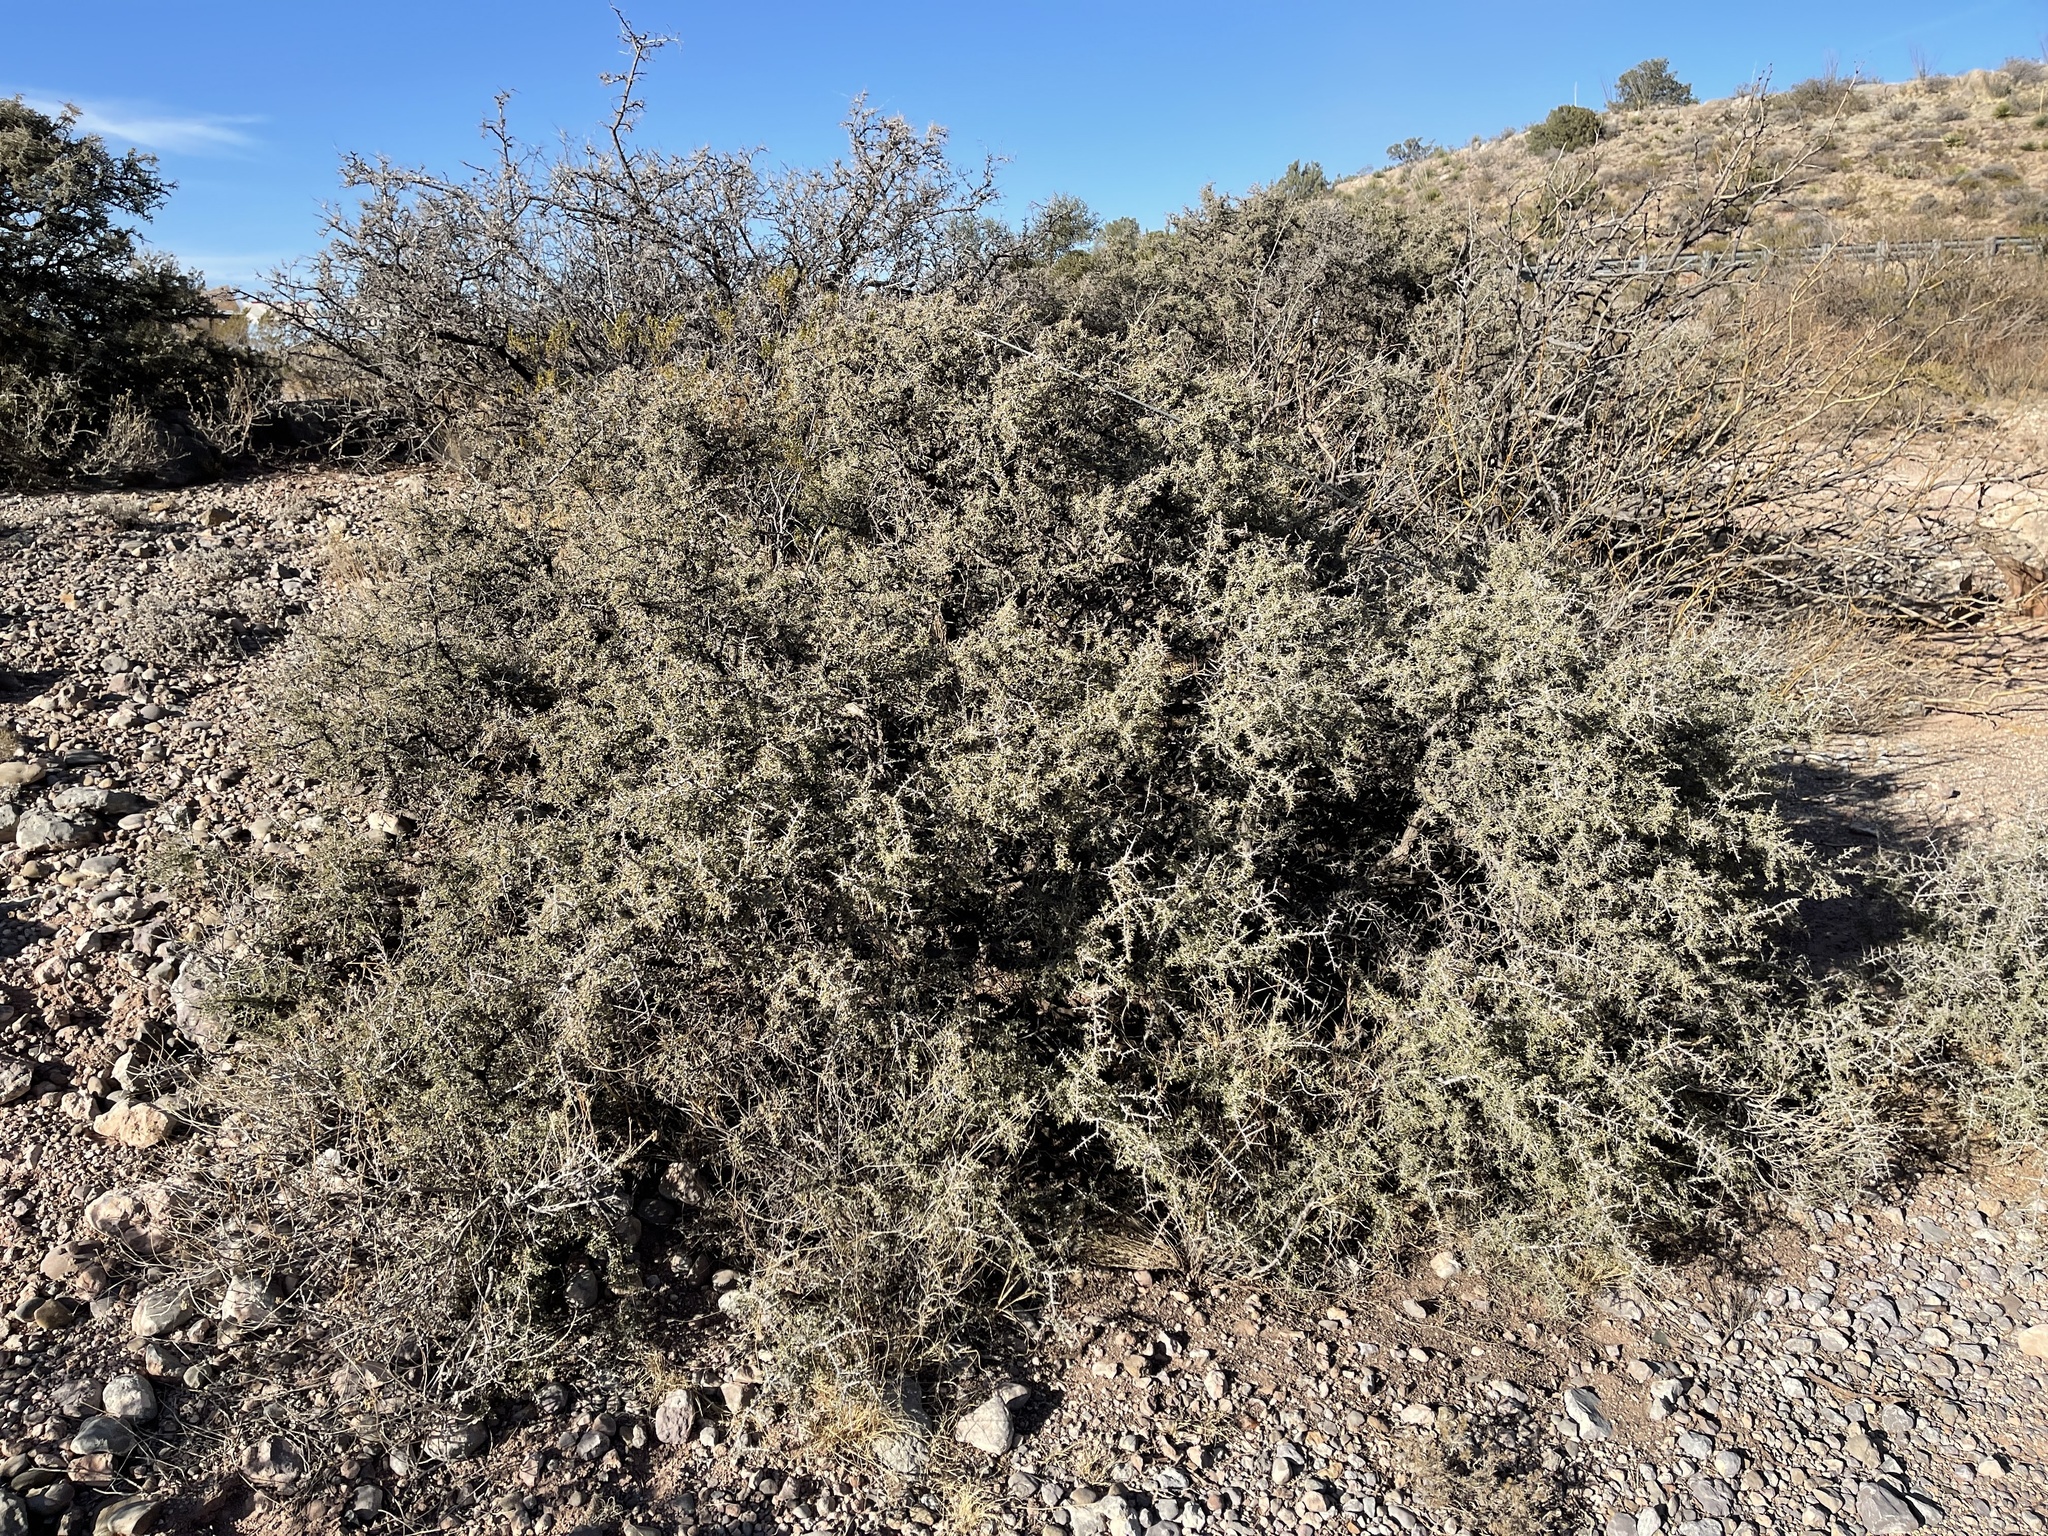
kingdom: Plantae
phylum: Tracheophyta
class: Magnoliopsida
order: Rosales
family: Rhamnaceae
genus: Condalia
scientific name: Condalia warnockii
